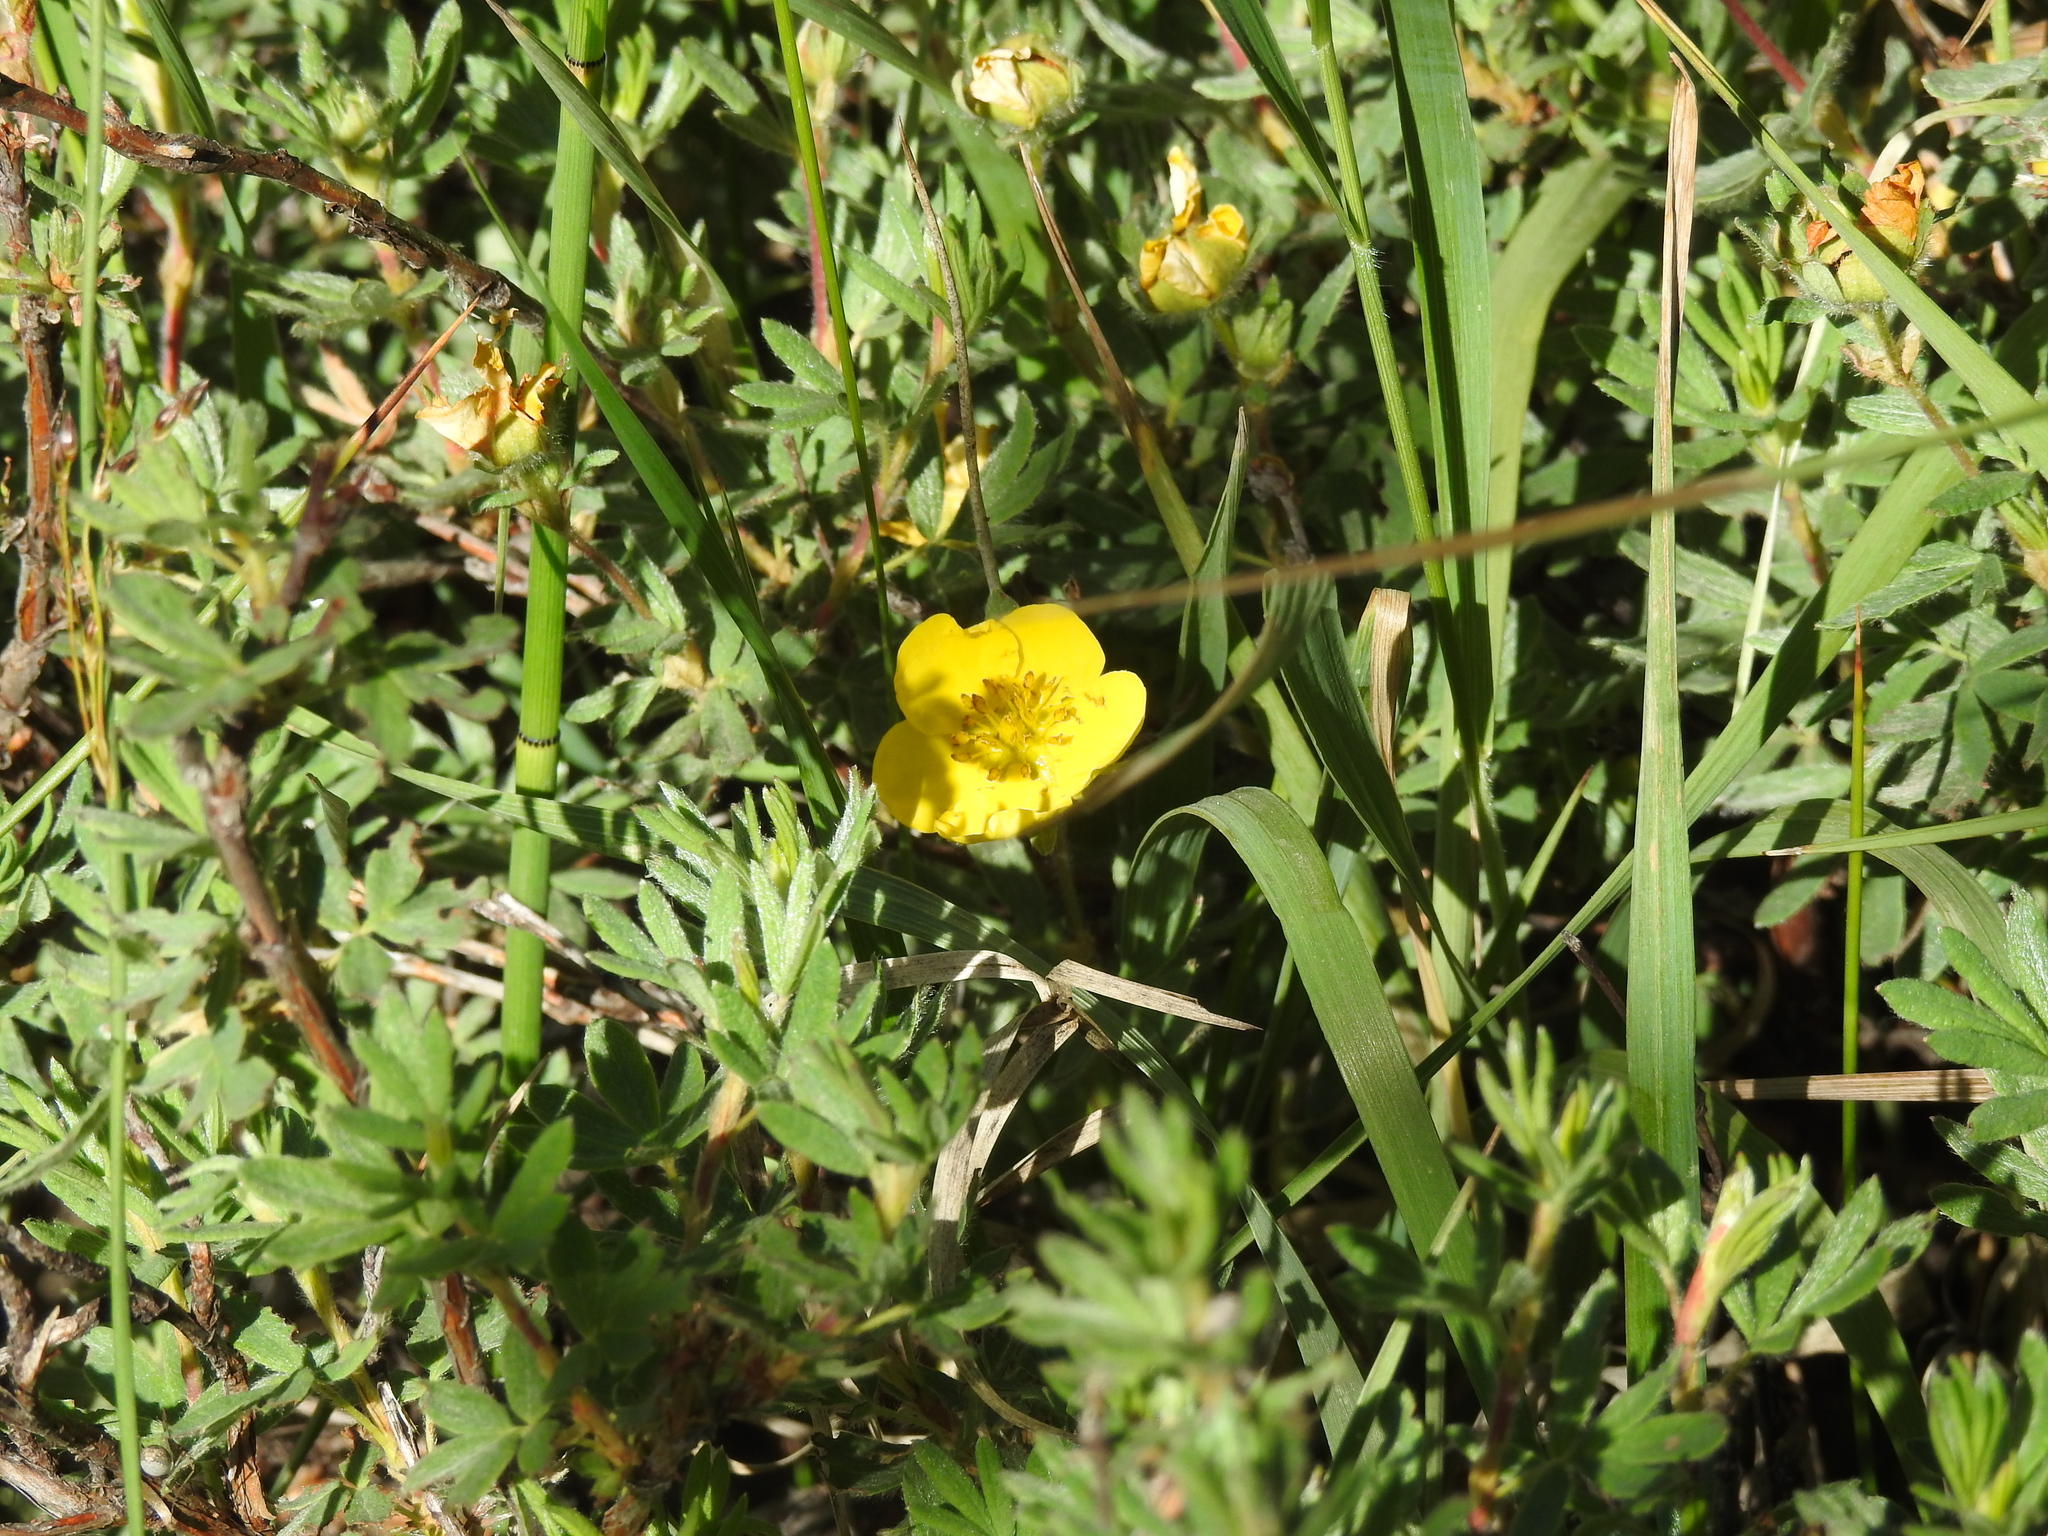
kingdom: Plantae
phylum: Tracheophyta
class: Magnoliopsida
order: Rosales
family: Rosaceae
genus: Dasiphora
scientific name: Dasiphora fruticosa
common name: Shrubby cinquefoil
